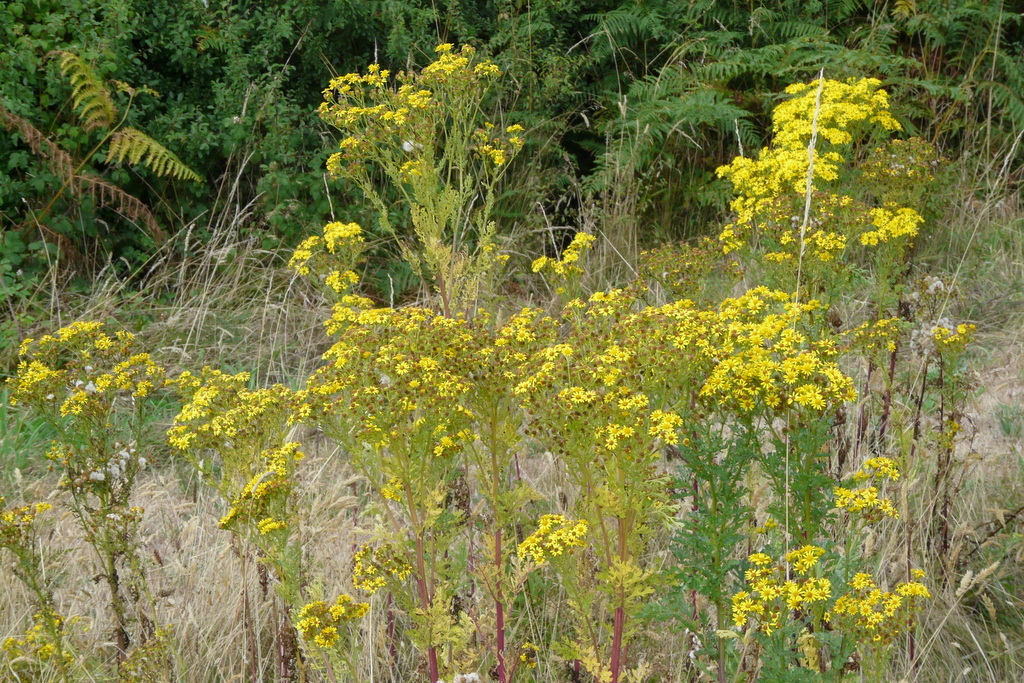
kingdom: Plantae
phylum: Tracheophyta
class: Magnoliopsida
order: Asterales
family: Asteraceae
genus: Jacobaea
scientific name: Jacobaea vulgaris
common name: Stinking willie
